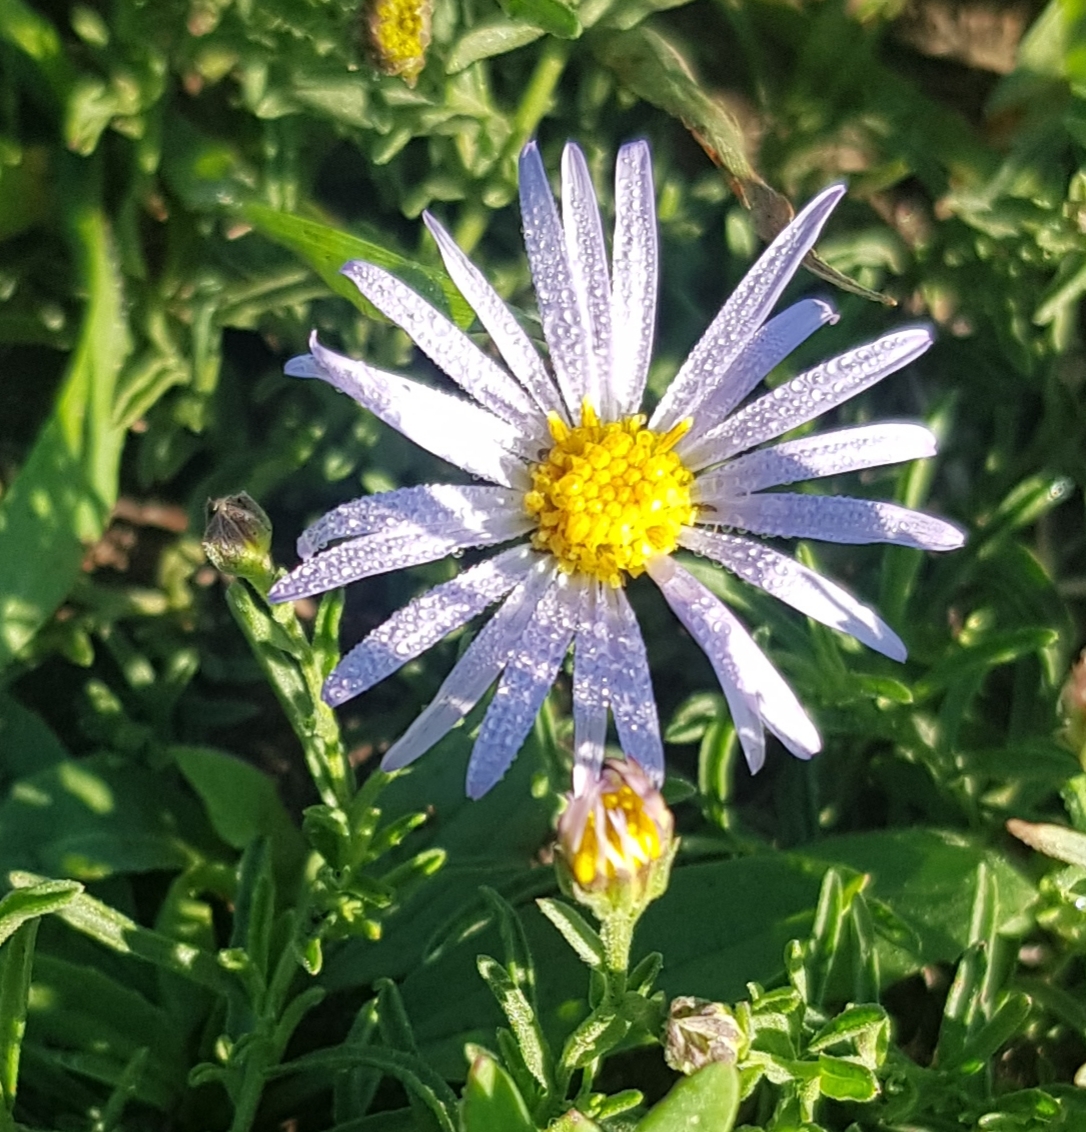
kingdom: Plantae
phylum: Tracheophyta
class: Magnoliopsida
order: Asterales
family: Asteraceae
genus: Heteropappus
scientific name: Heteropappus altaicus
